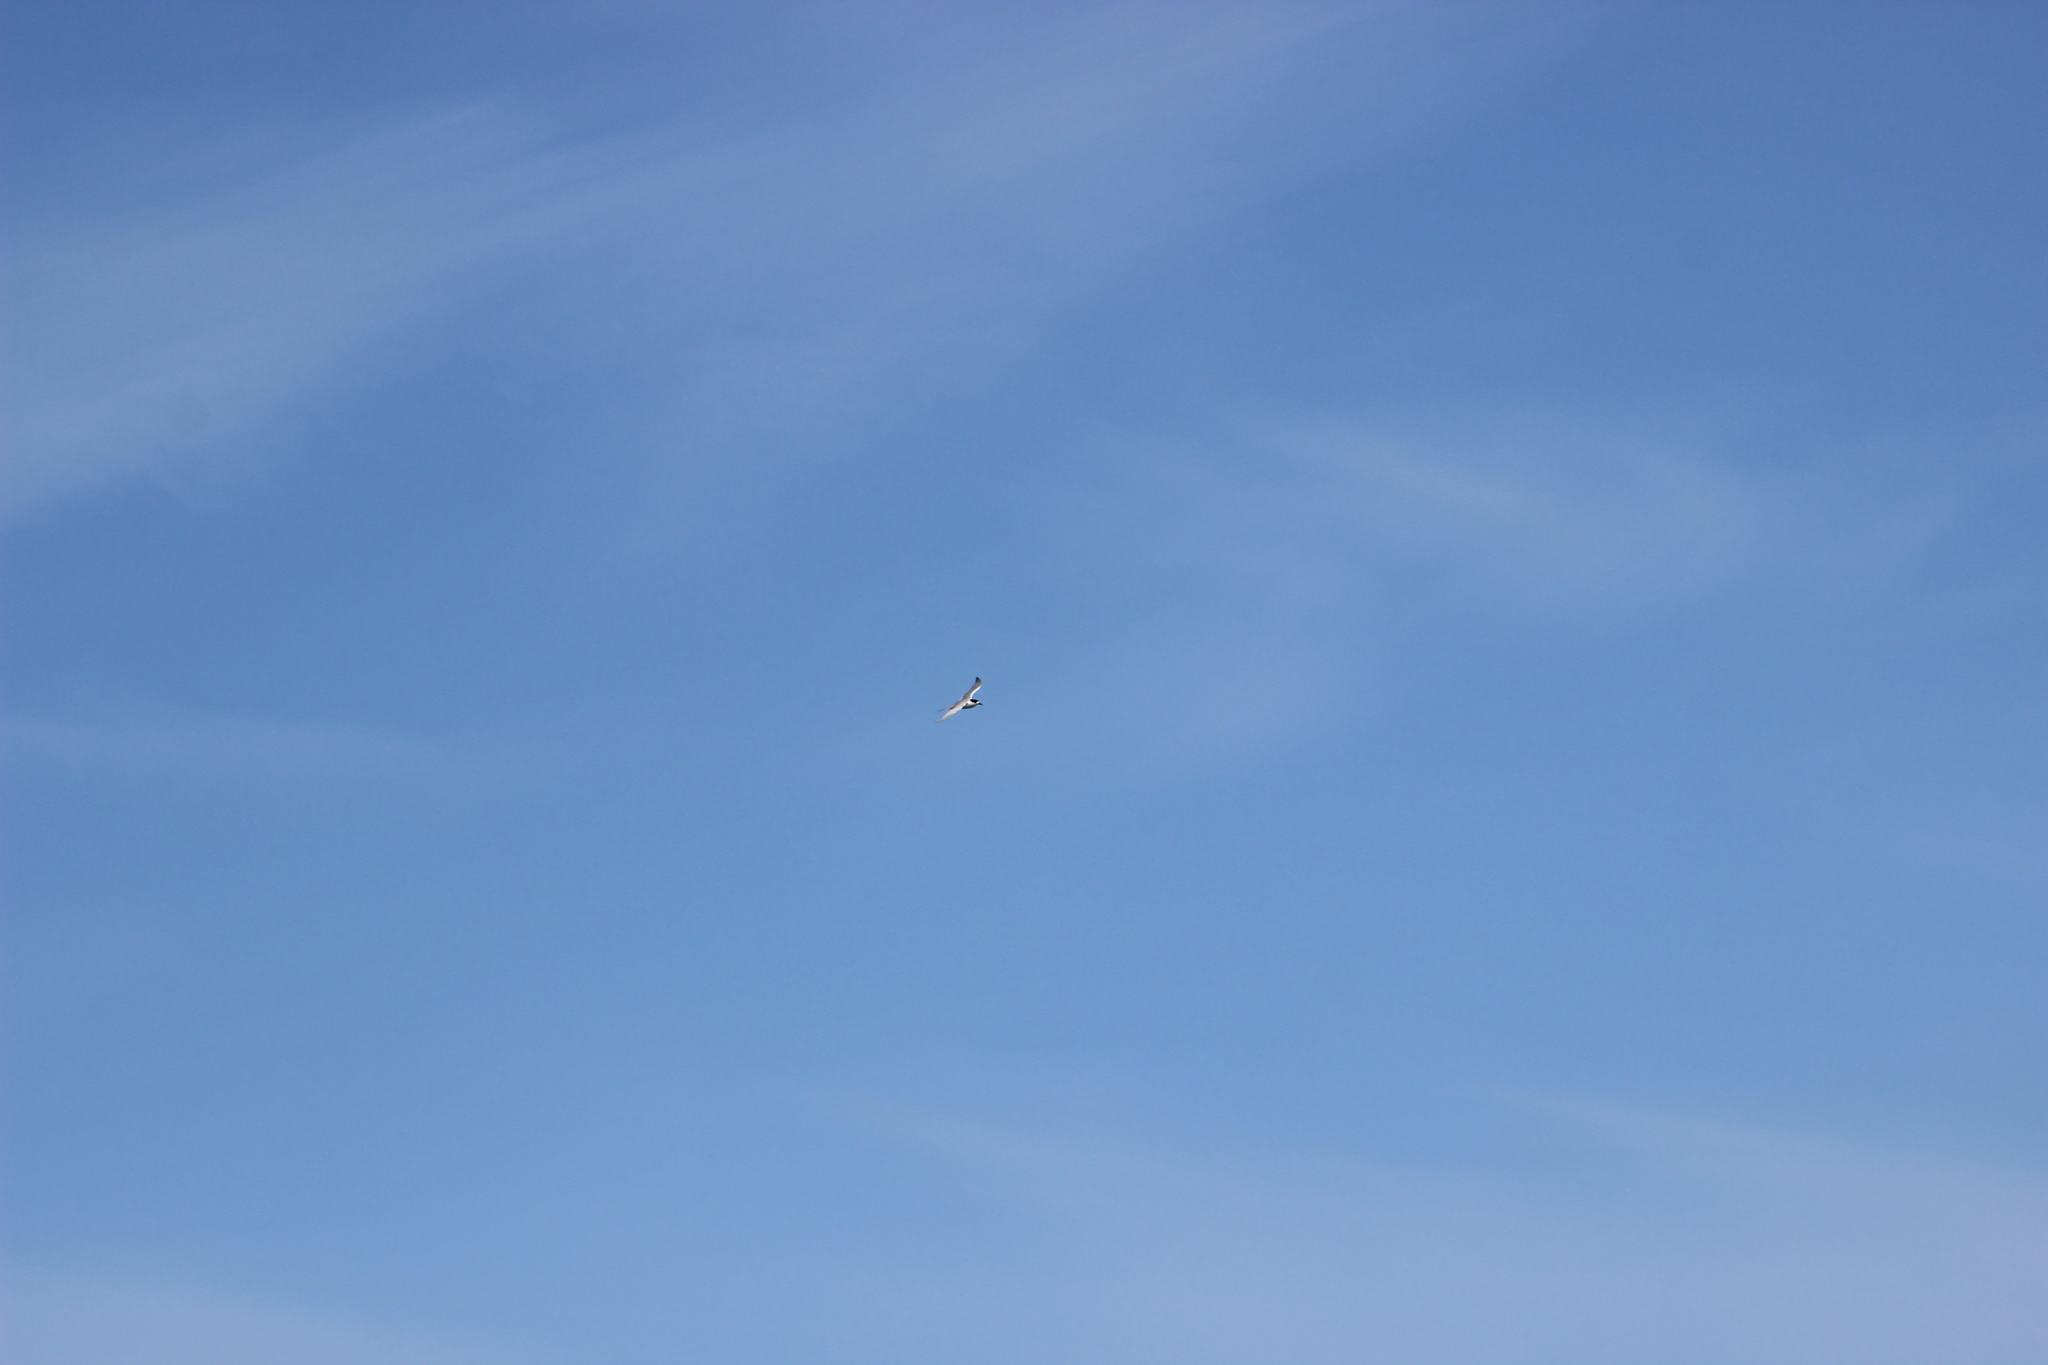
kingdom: Animalia
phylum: Chordata
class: Aves
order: Charadriiformes
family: Laridae
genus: Sterna
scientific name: Sterna striata
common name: White-fronted tern
